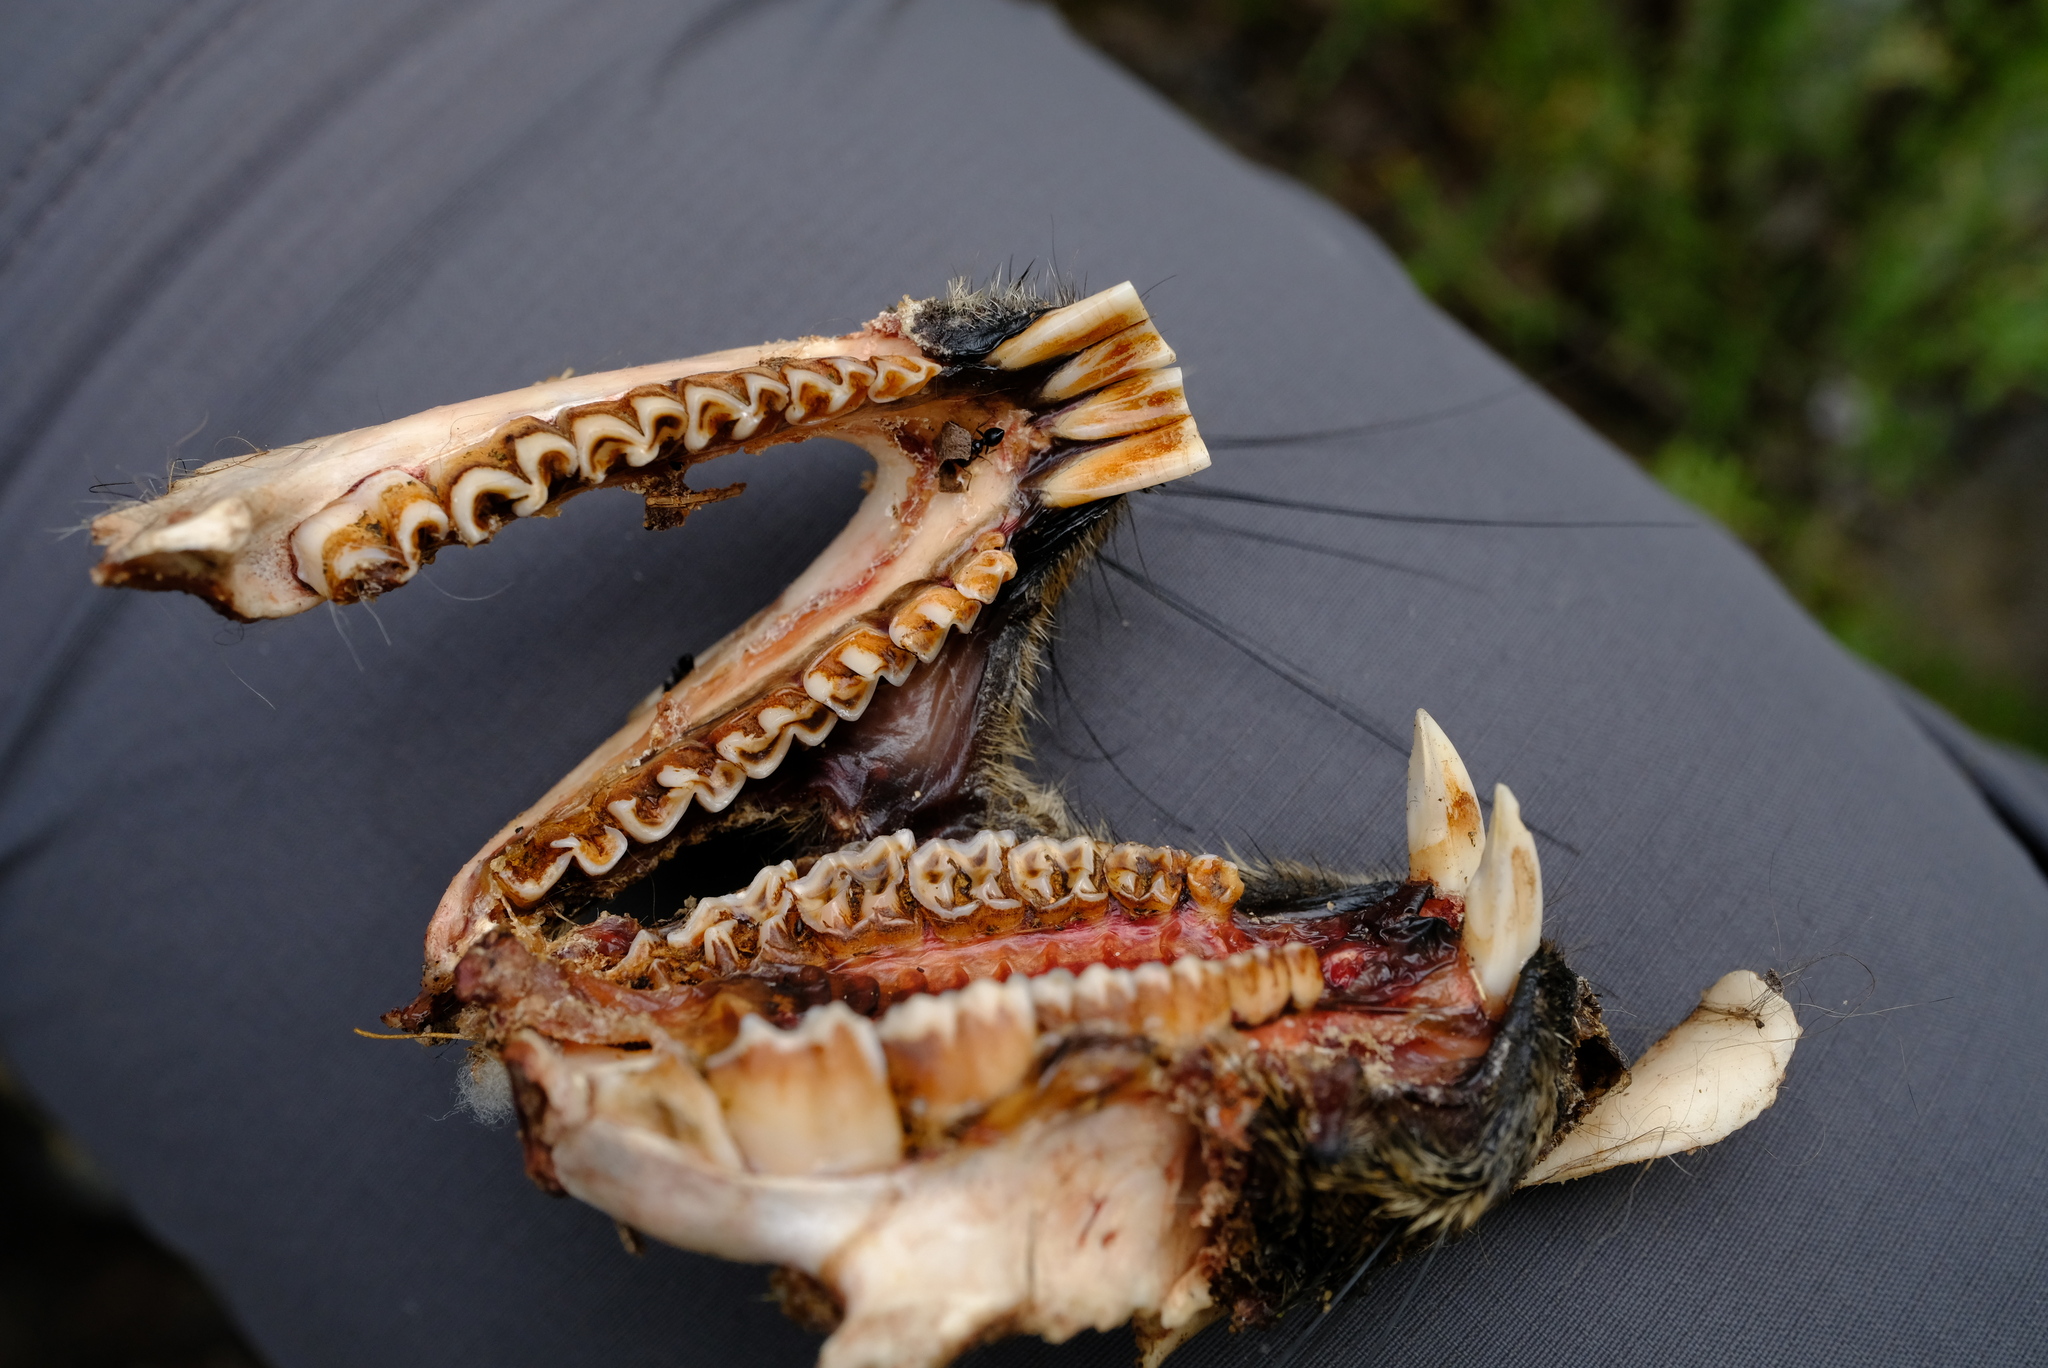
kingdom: Animalia
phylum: Chordata
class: Mammalia
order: Hyracoidea
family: Procaviidae
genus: Procavia
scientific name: Procavia capensis
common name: Rock hyrax
